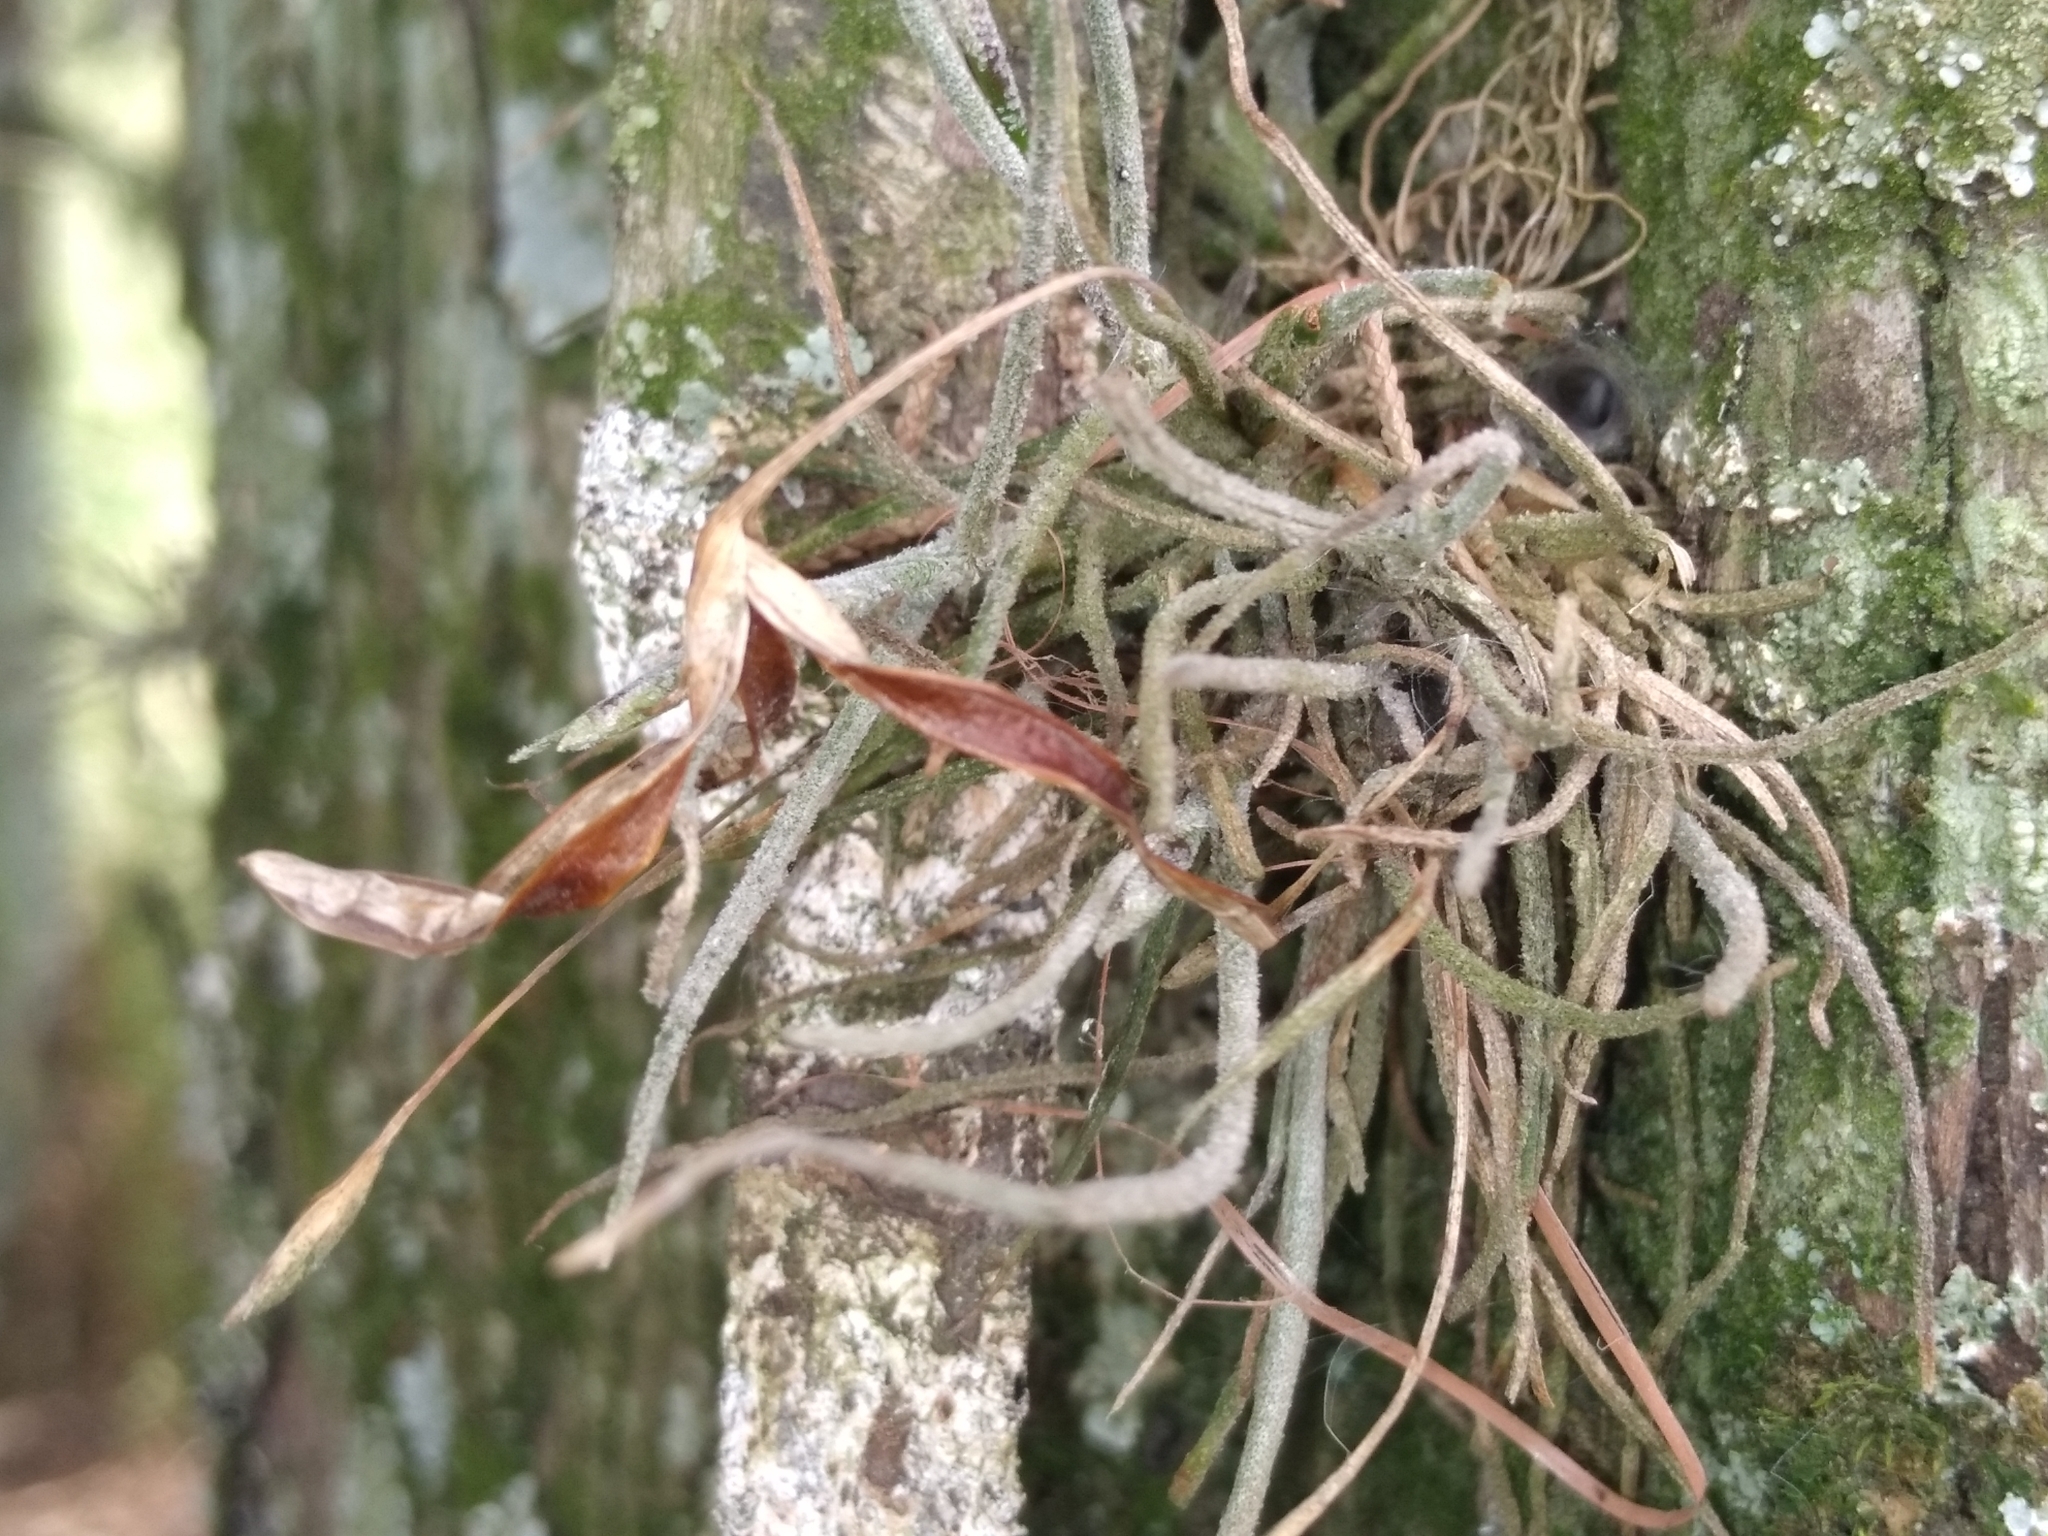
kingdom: Plantae
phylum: Tracheophyta
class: Liliopsida
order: Poales
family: Bromeliaceae
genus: Tillandsia
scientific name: Tillandsia recurvata
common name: Small ballmoss
